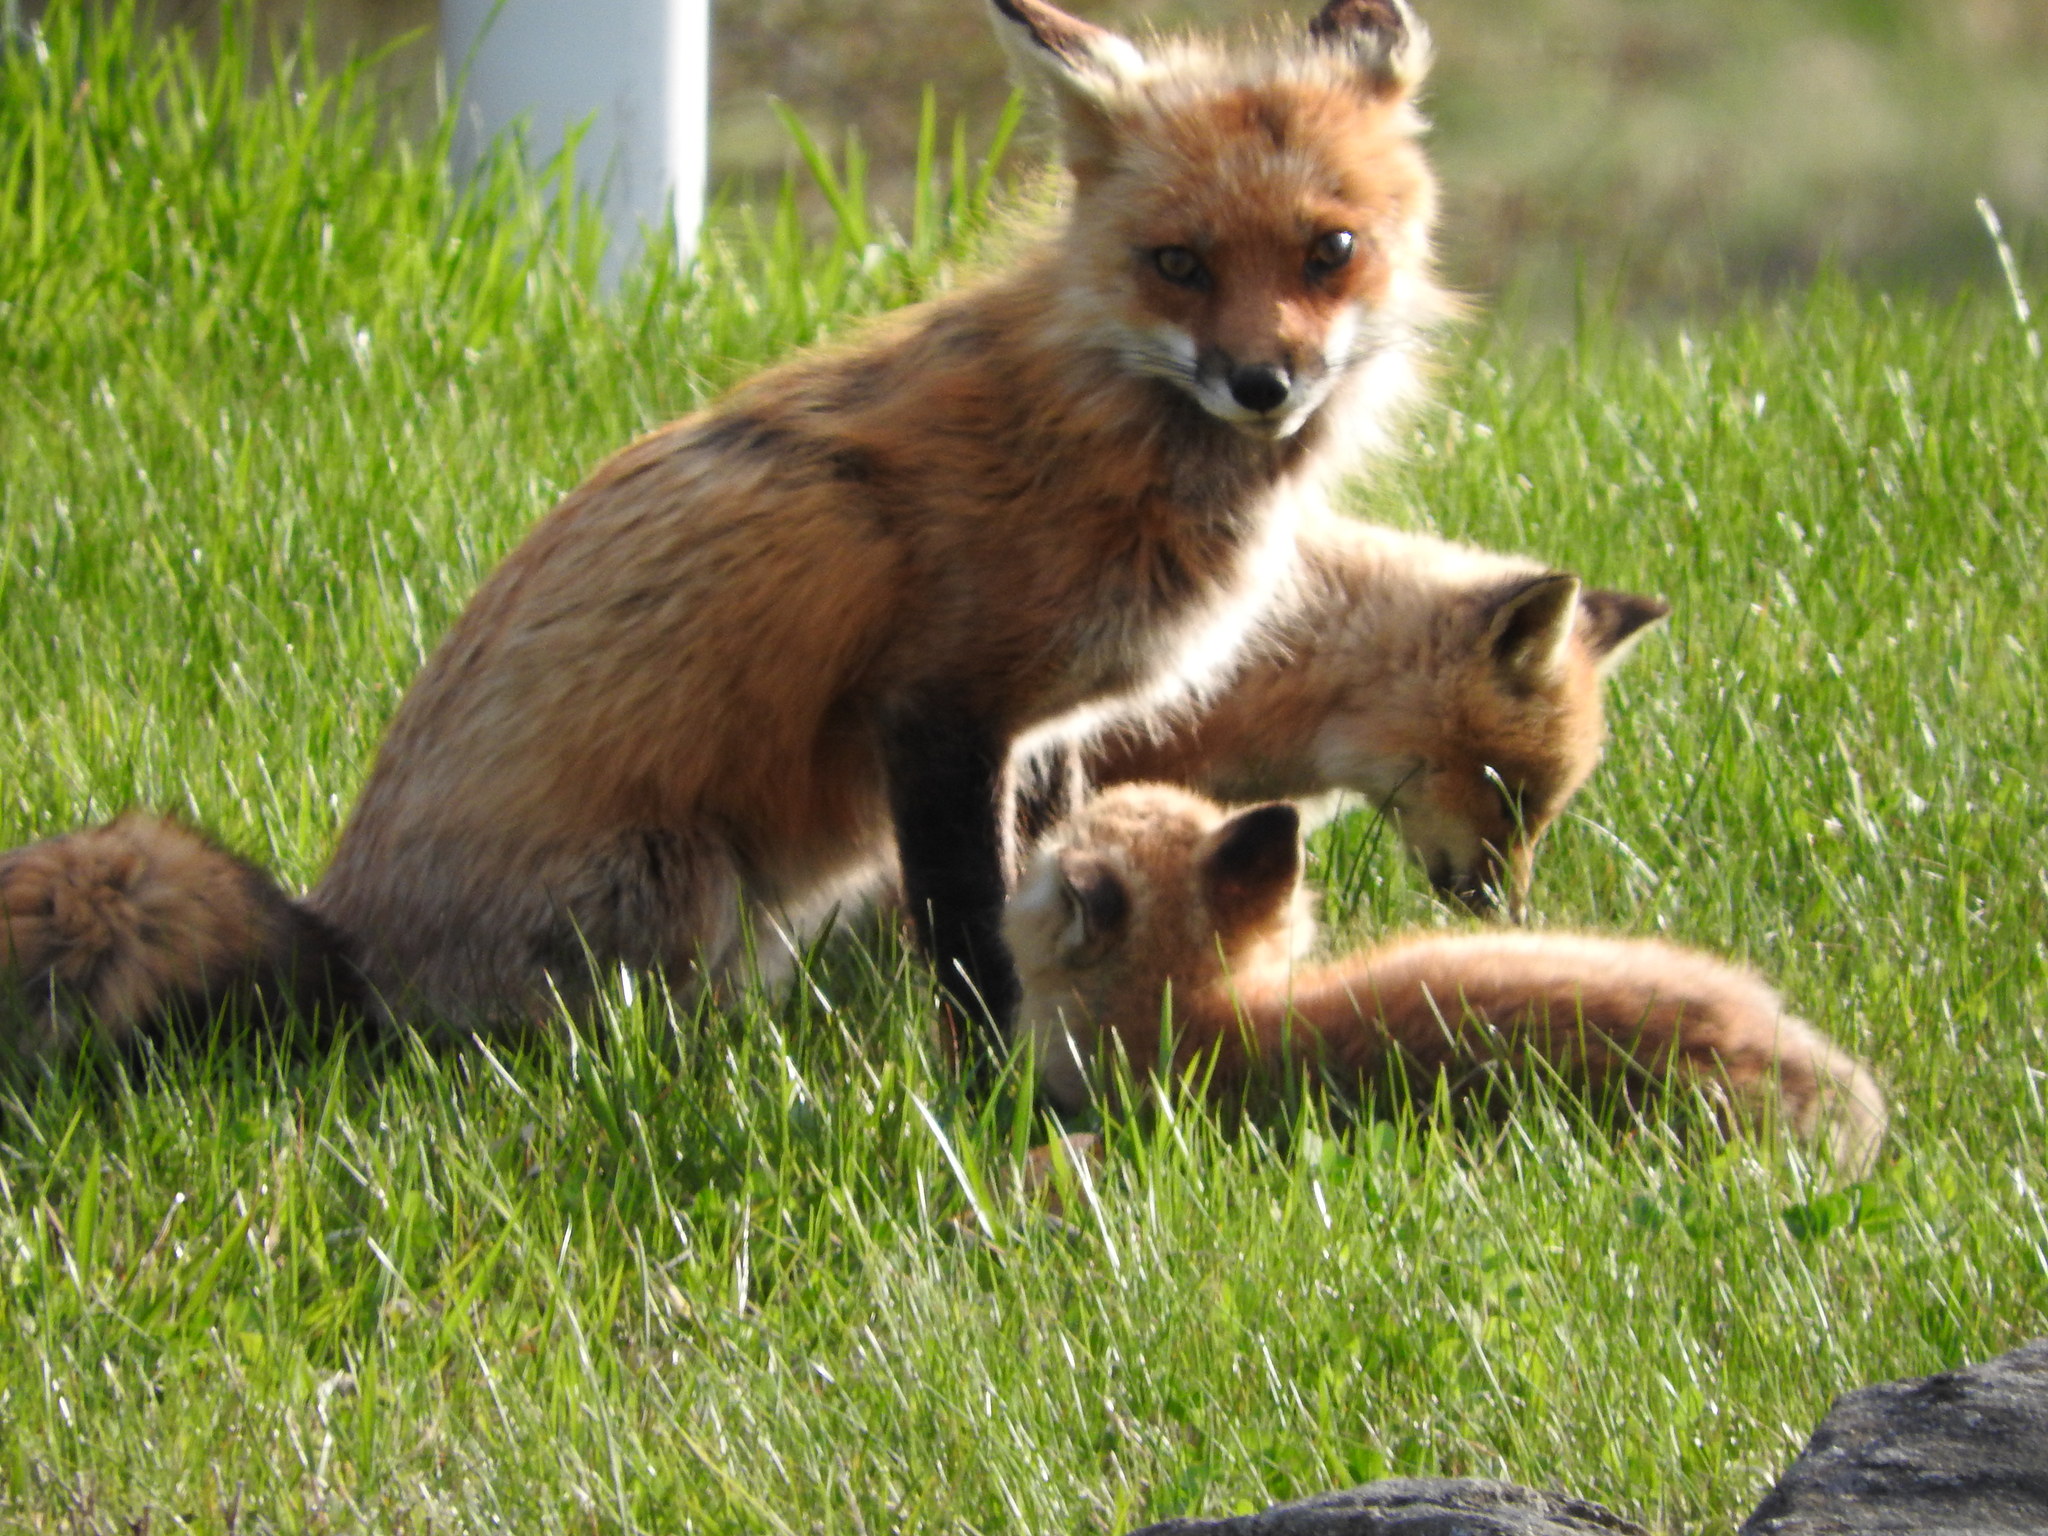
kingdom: Animalia
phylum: Chordata
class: Mammalia
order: Carnivora
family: Canidae
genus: Vulpes
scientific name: Vulpes vulpes
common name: Red fox
